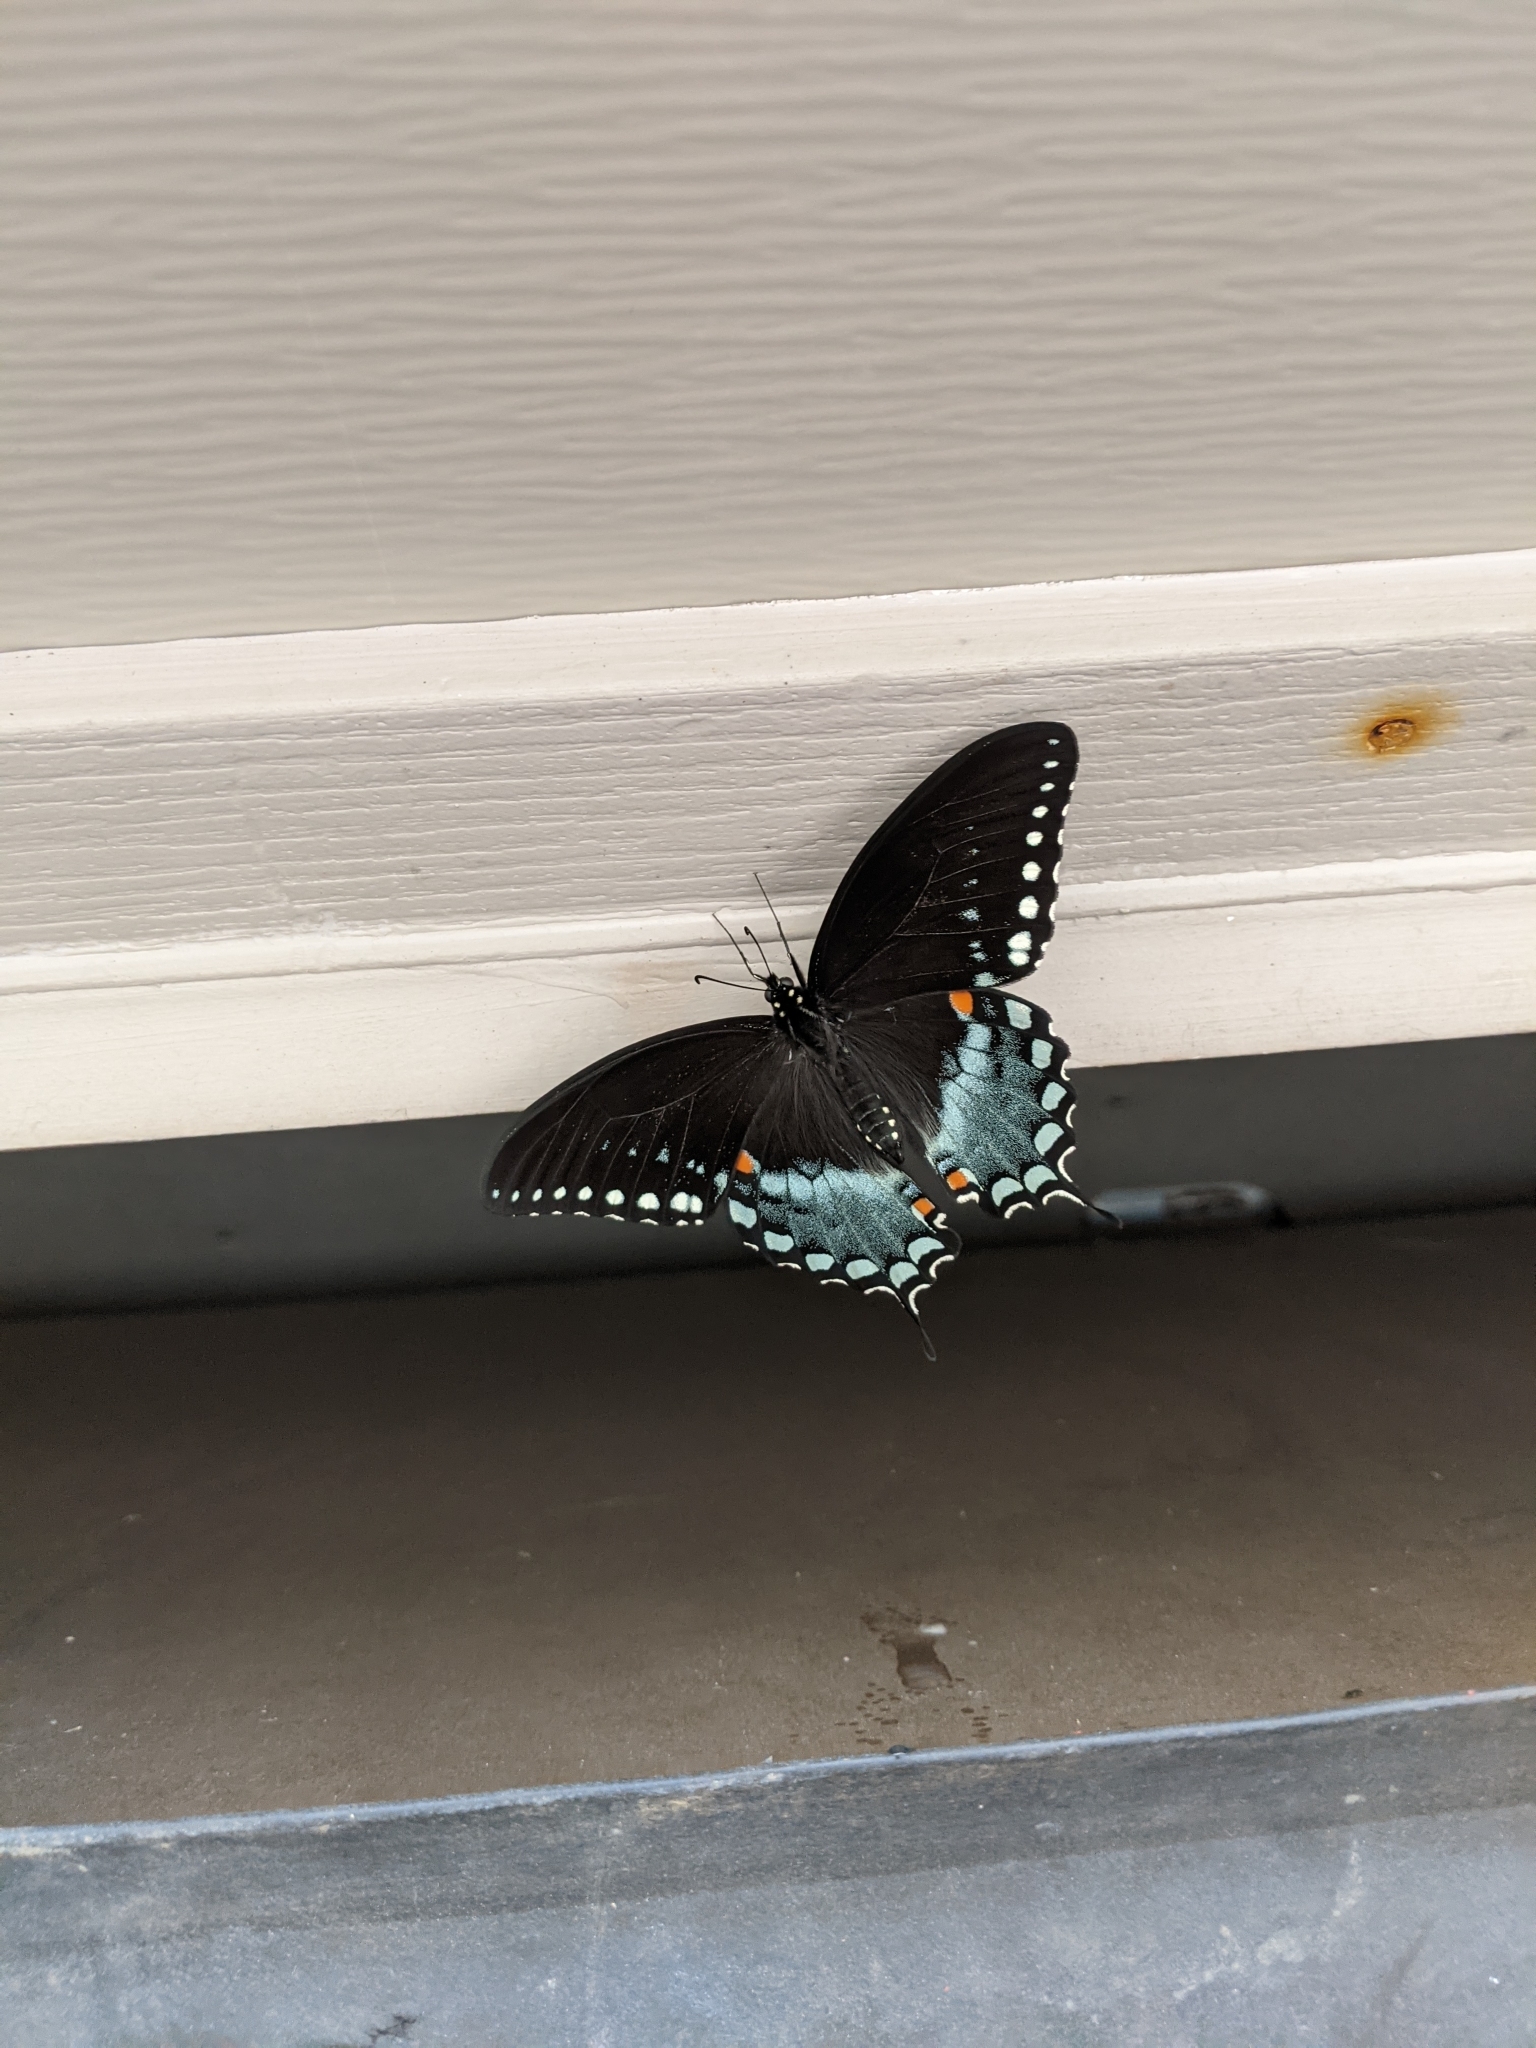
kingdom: Animalia
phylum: Arthropoda
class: Insecta
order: Lepidoptera
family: Papilionidae
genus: Papilio
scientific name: Papilio troilus
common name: Spicebush swallowtail
